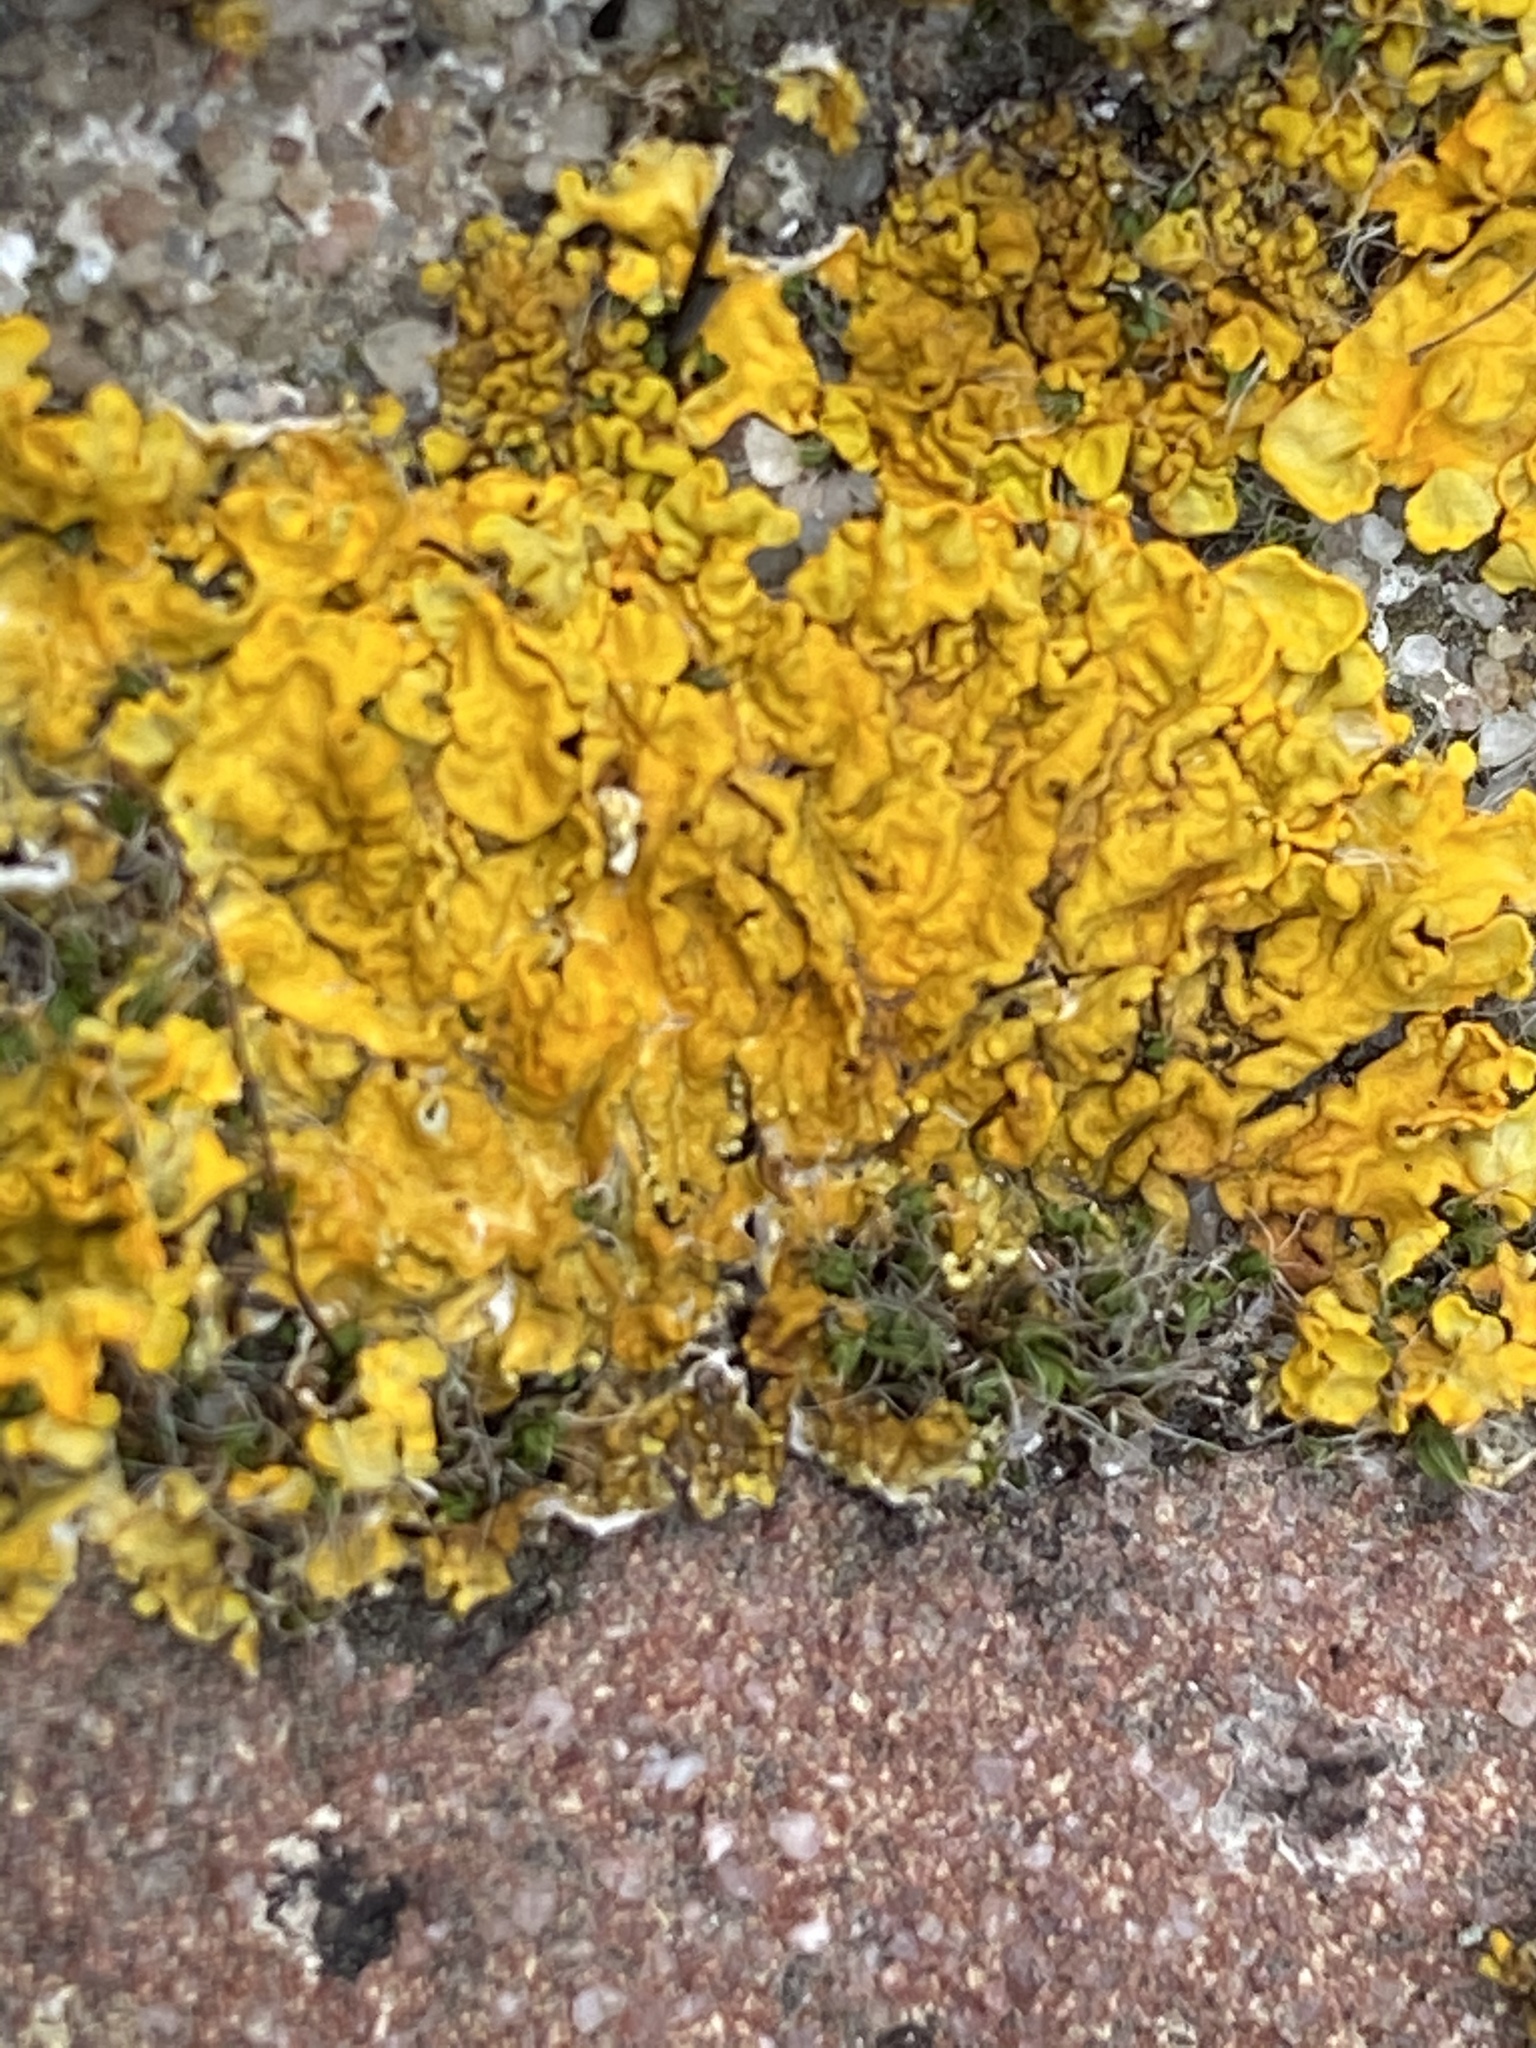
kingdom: Fungi
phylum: Ascomycota
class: Lecanoromycetes
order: Teloschistales
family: Teloschistaceae
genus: Xanthoria
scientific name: Xanthoria parietina
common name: Common orange lichen
